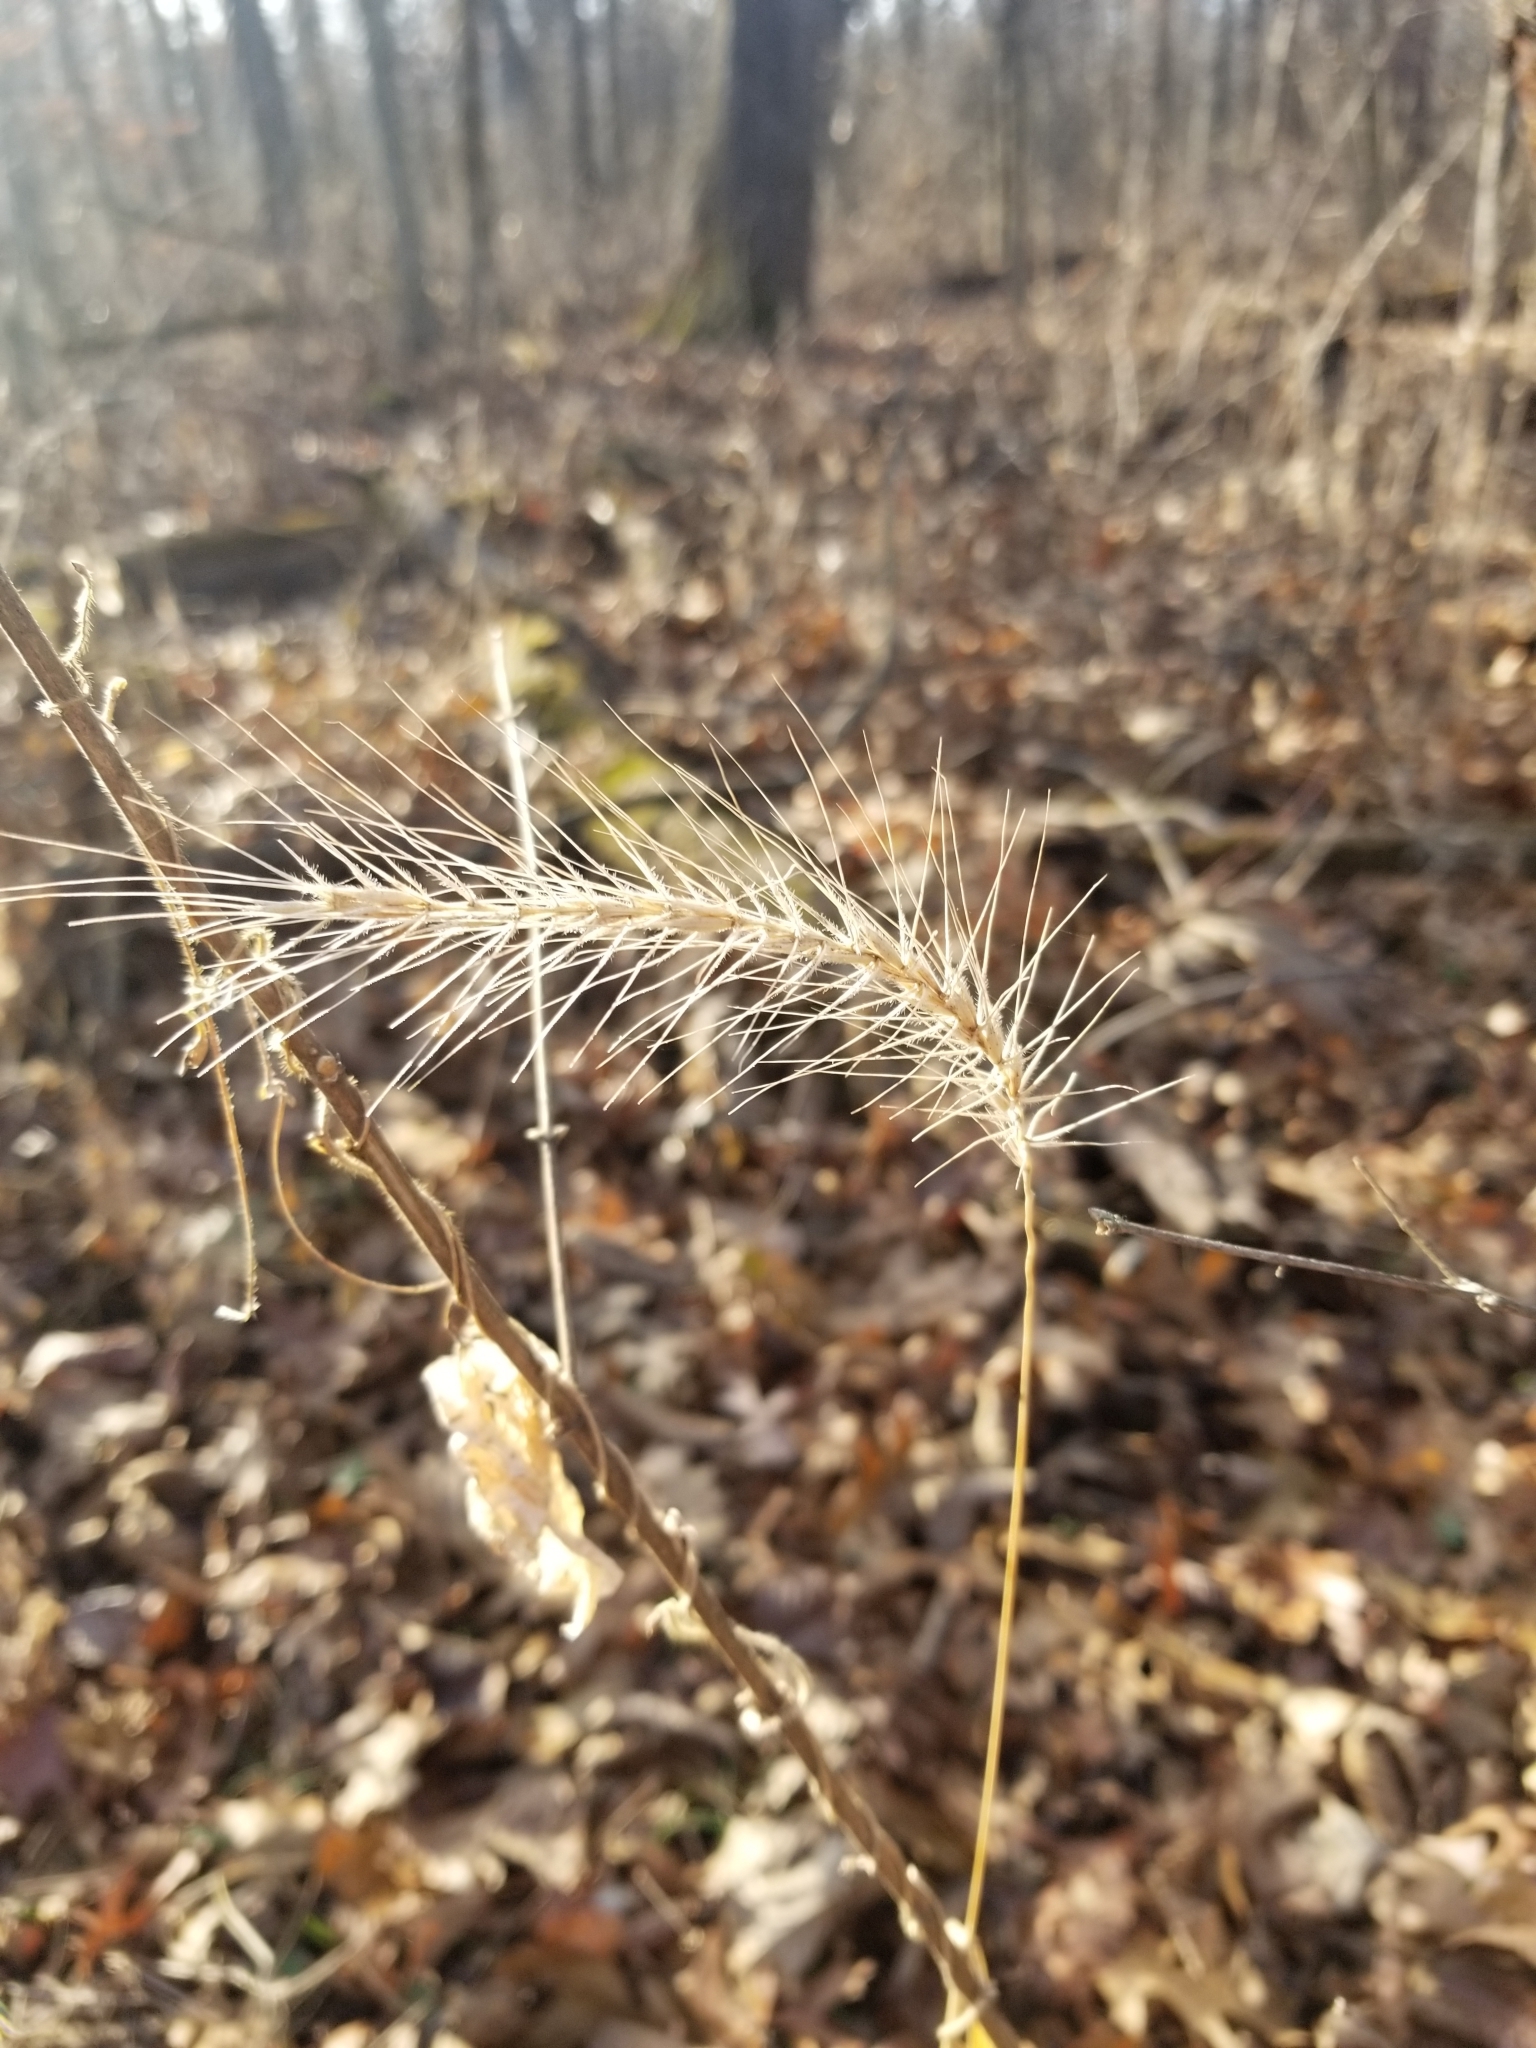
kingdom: Plantae
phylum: Tracheophyta
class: Liliopsida
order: Poales
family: Poaceae
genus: Elymus
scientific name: Elymus villosus
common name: Downy wild rye
